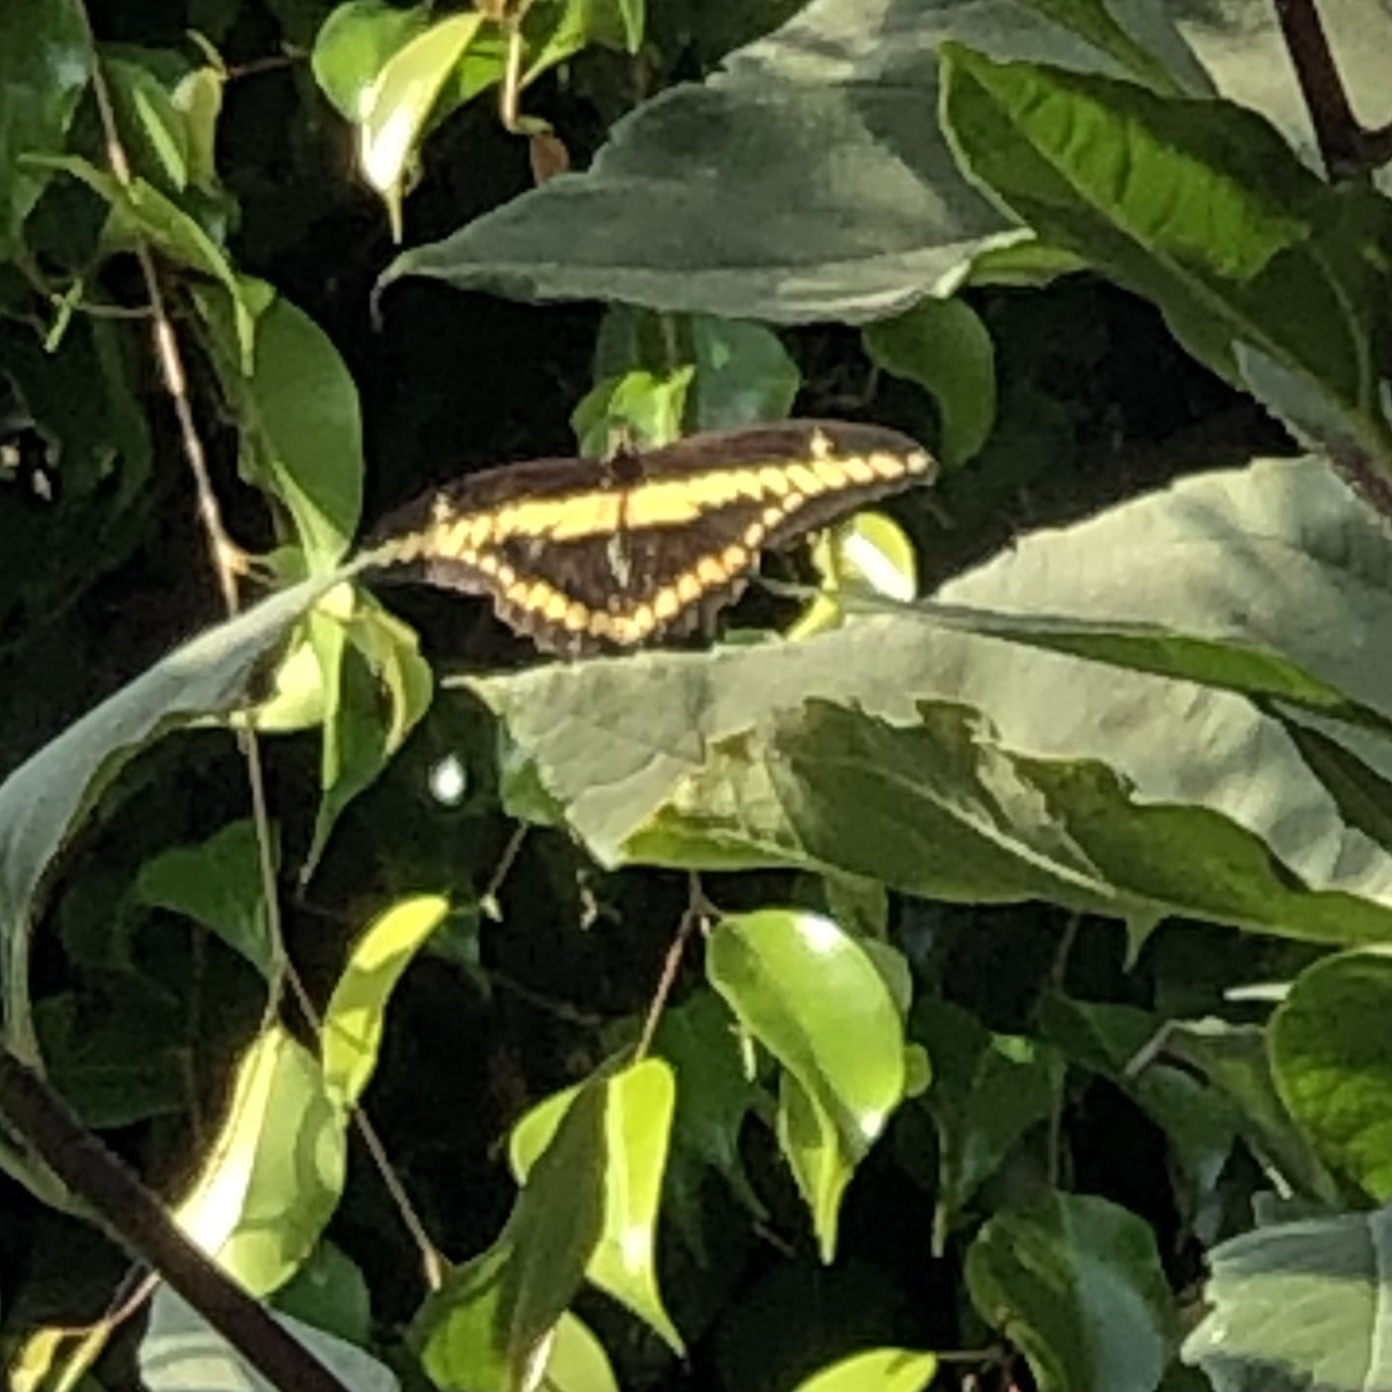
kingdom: Animalia
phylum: Arthropoda
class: Insecta
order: Lepidoptera
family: Papilionidae
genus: Papilio
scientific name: Papilio rumiko
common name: Western giant swallowtail
